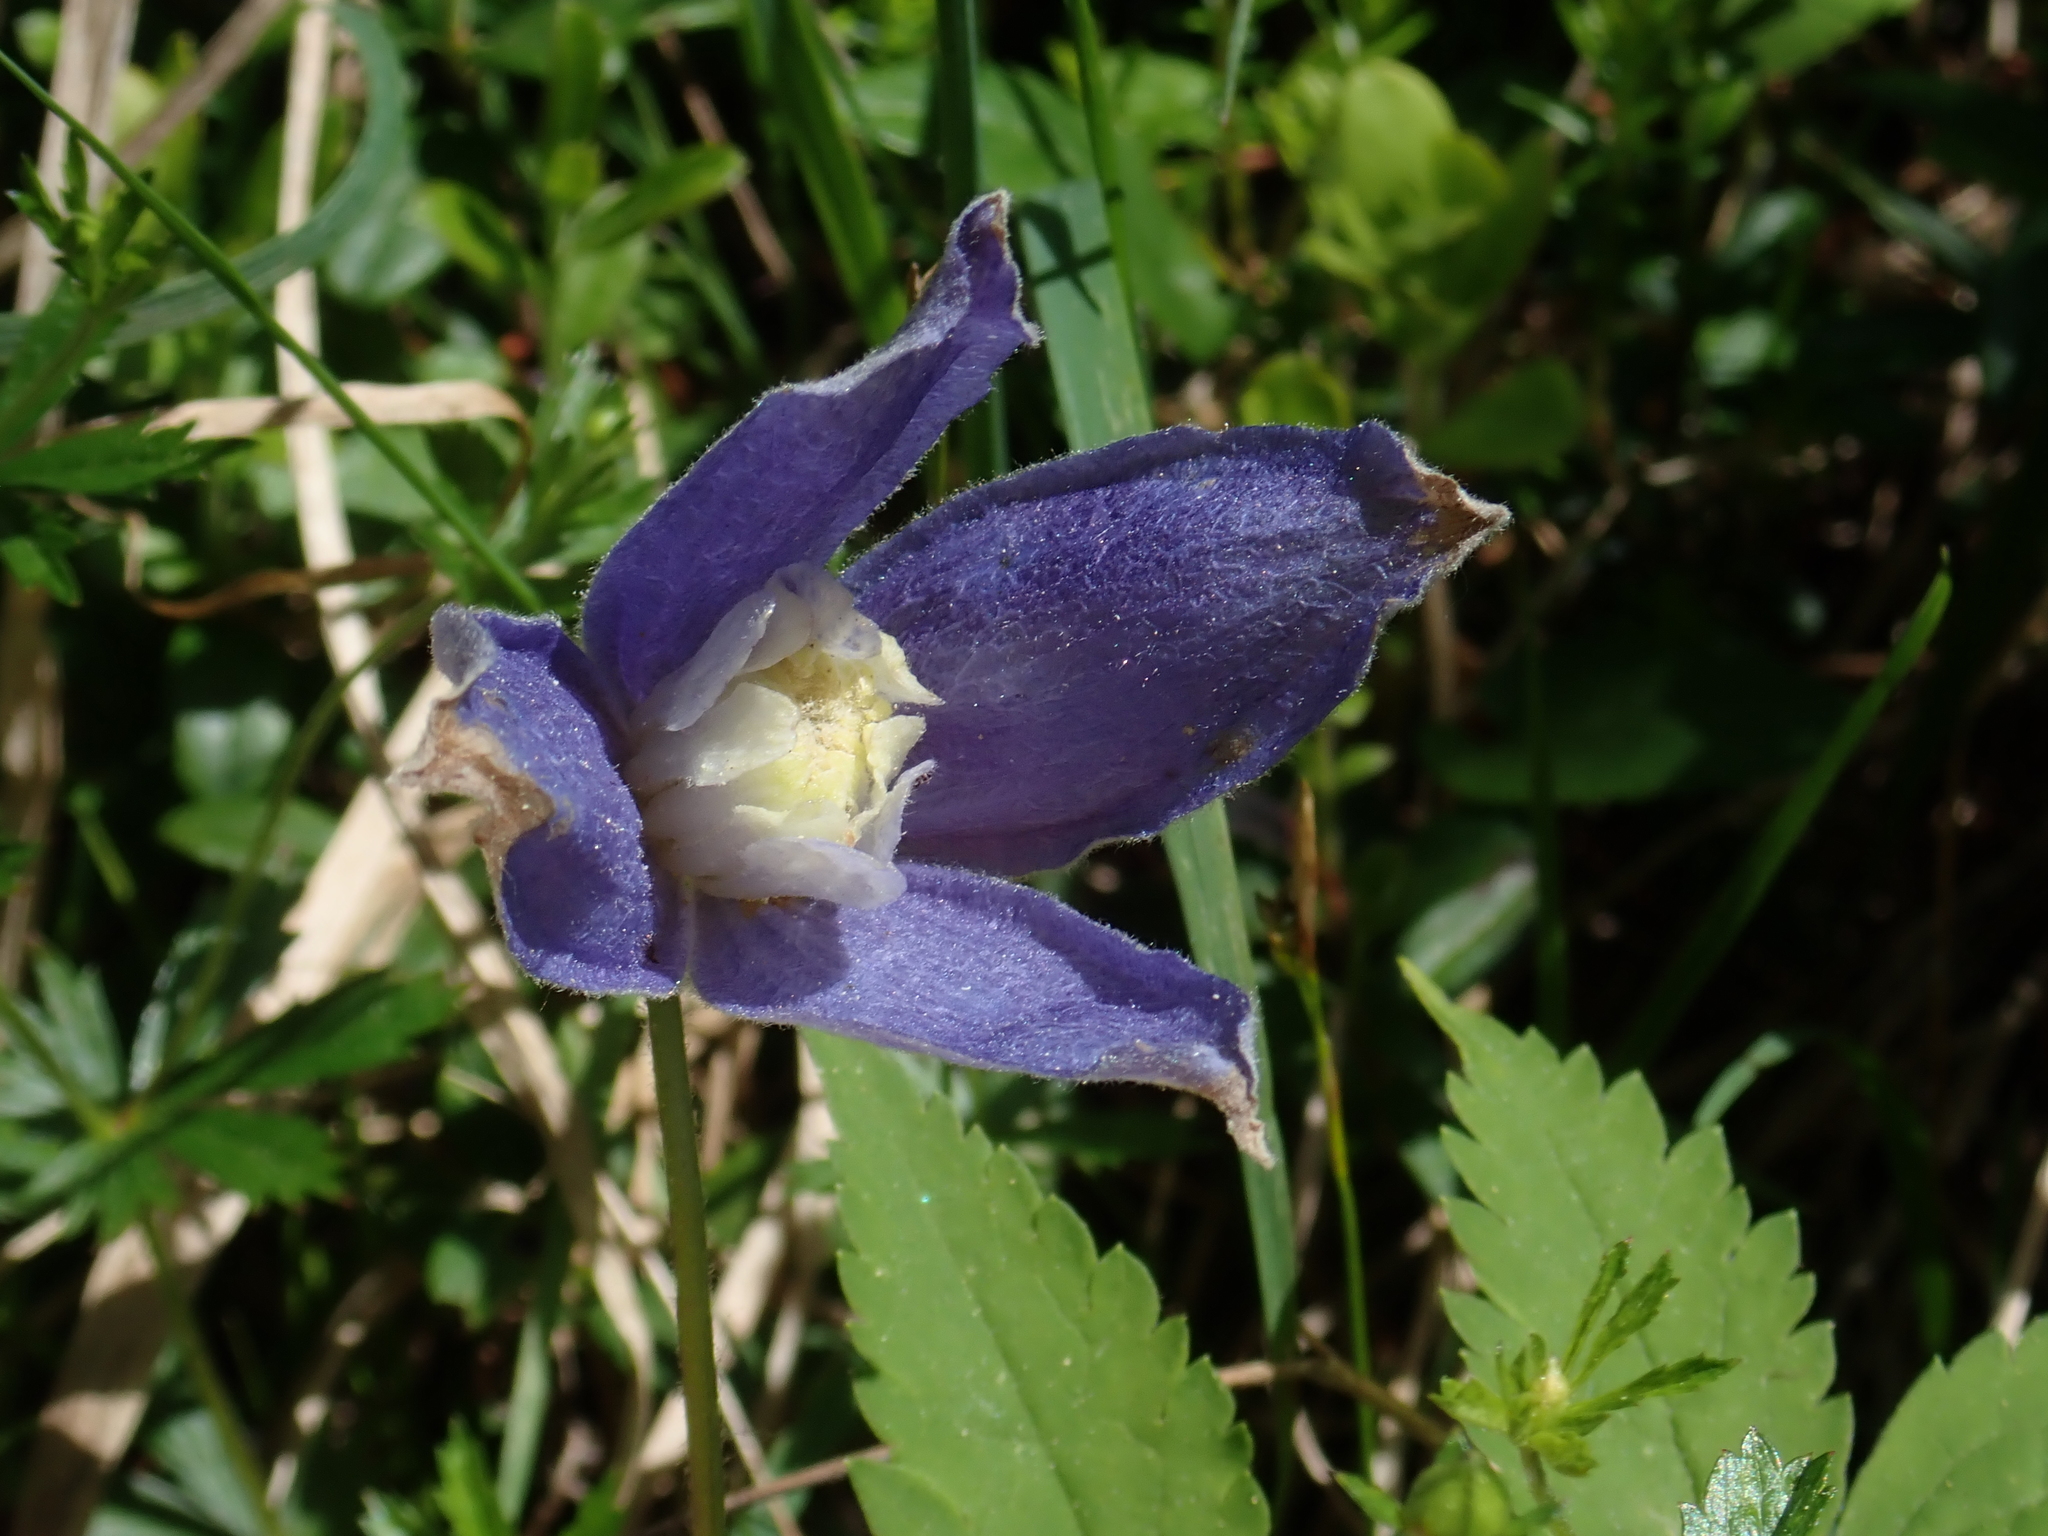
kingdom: Plantae
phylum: Tracheophyta
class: Magnoliopsida
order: Ranunculales
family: Ranunculaceae
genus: Clematis
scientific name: Clematis alpina
